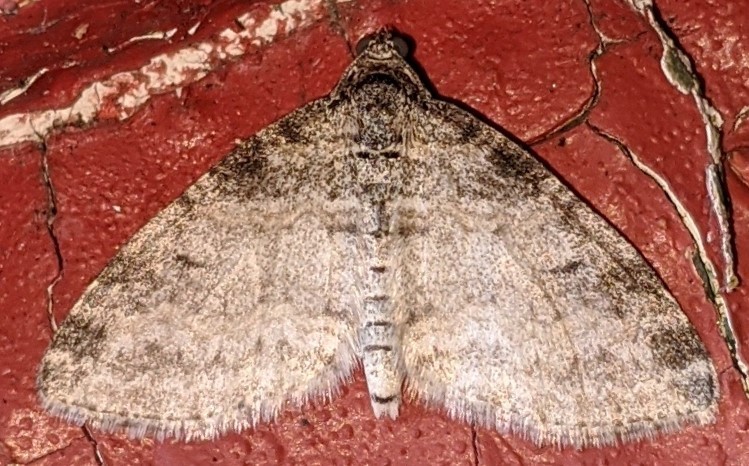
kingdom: Animalia
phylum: Arthropoda
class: Insecta
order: Lepidoptera
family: Geometridae
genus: Lobophora
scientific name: Lobophora nivigerata
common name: Powdered bigwing
